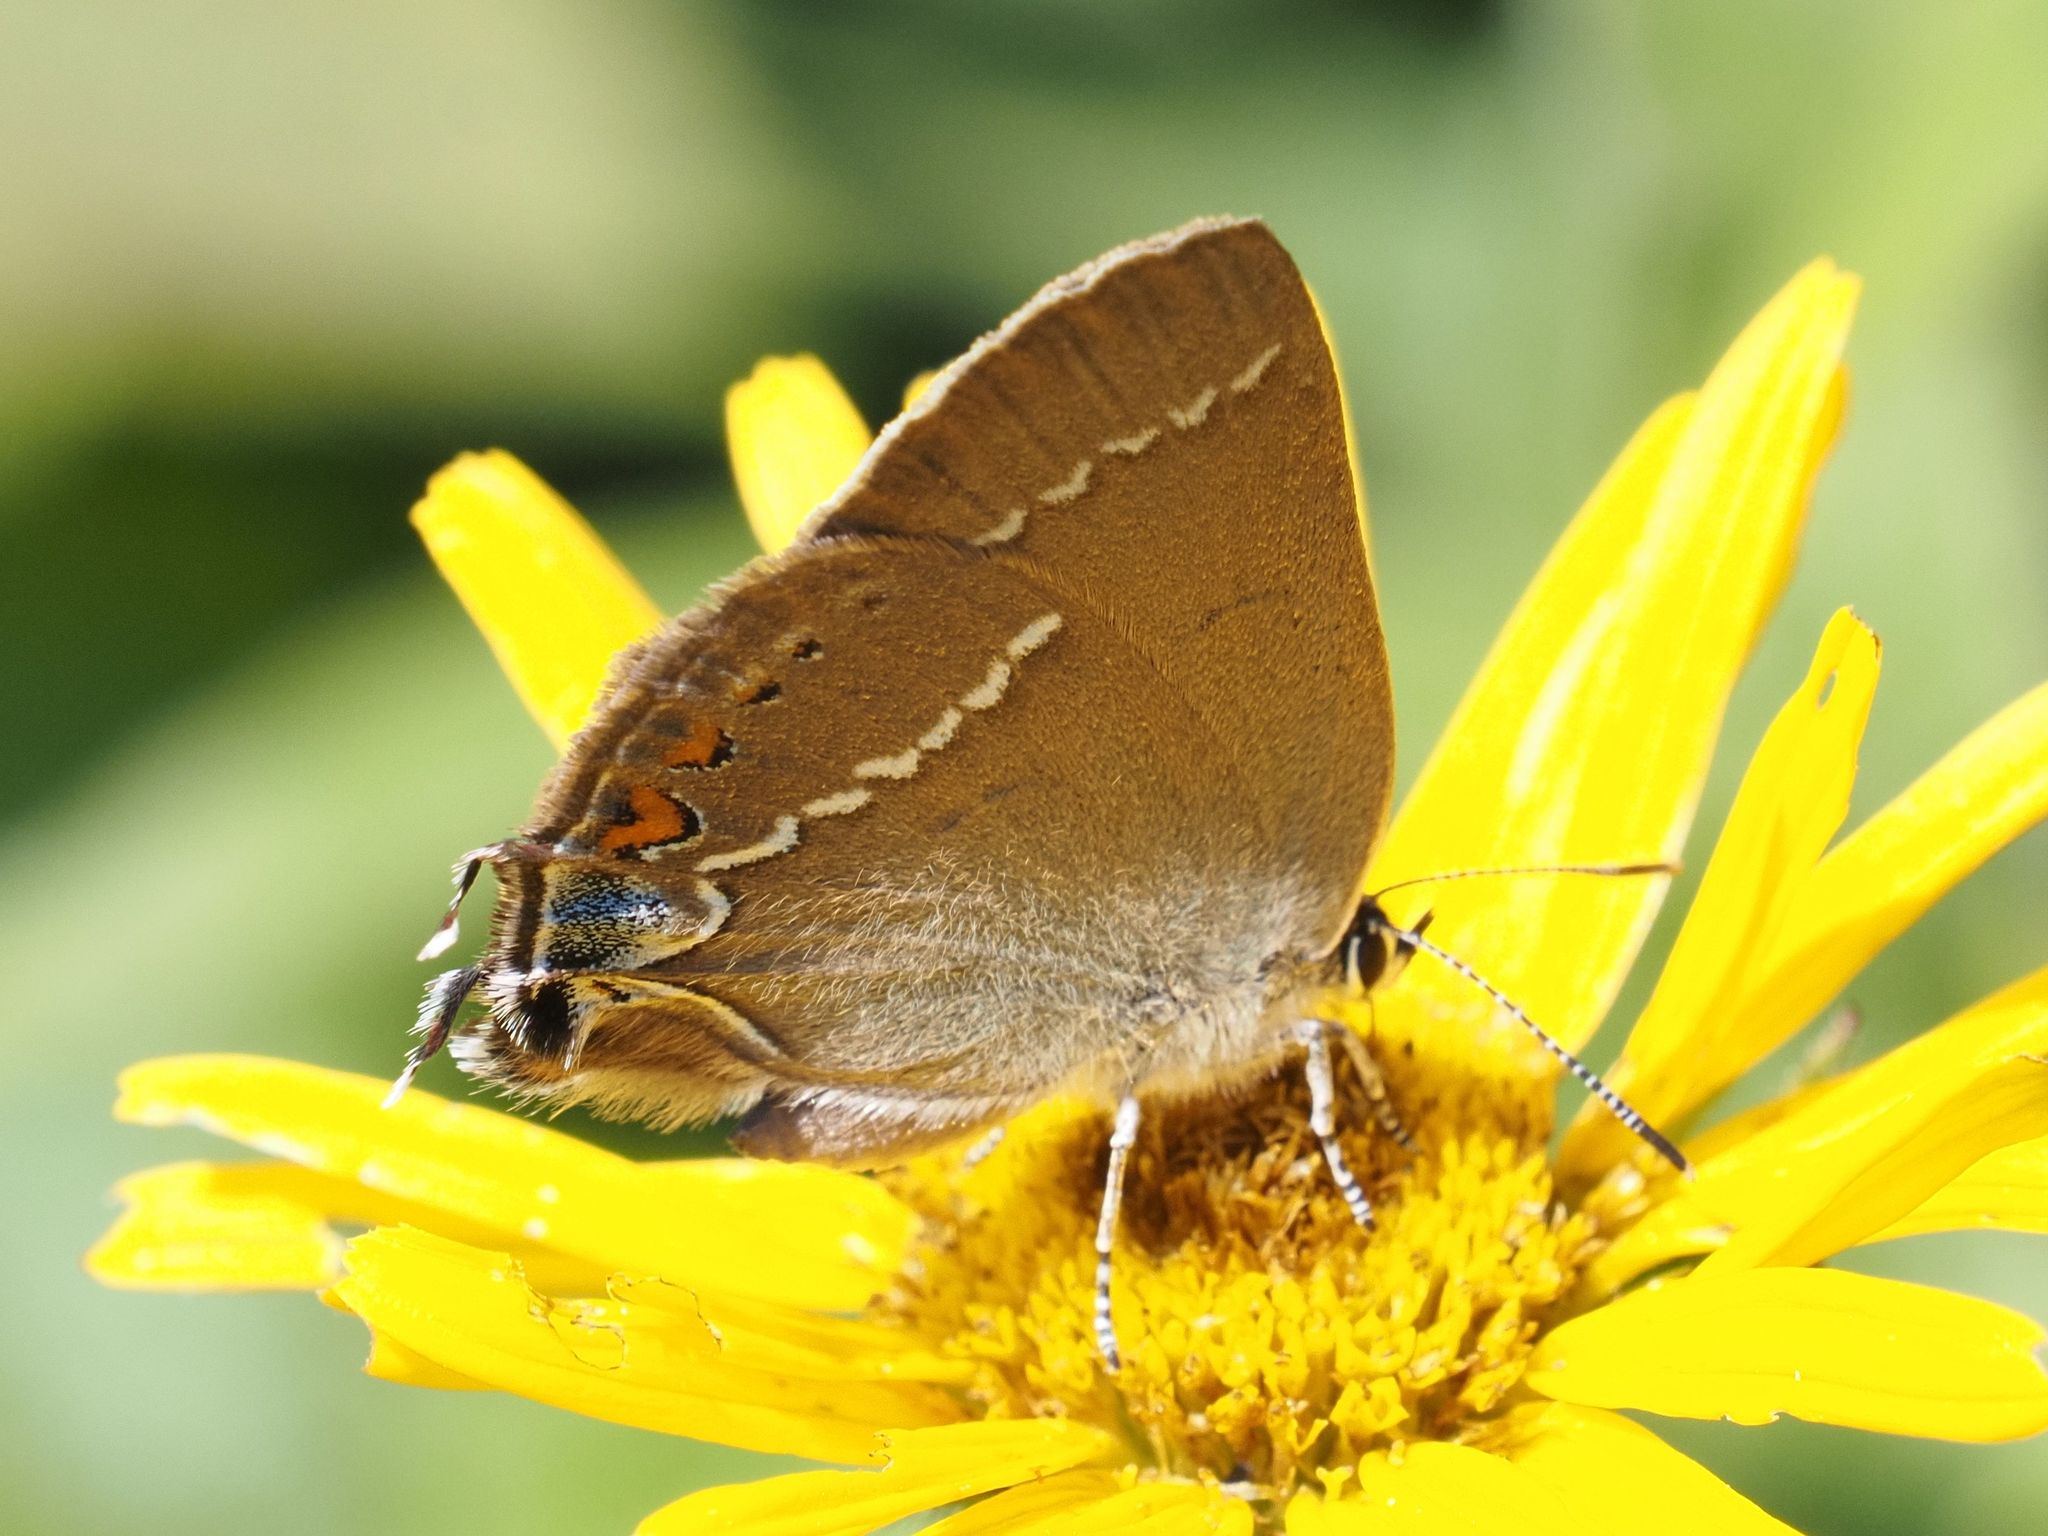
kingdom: Animalia
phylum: Arthropoda
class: Insecta
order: Lepidoptera
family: Lycaenidae
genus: Tuttiola
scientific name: Tuttiola spini
